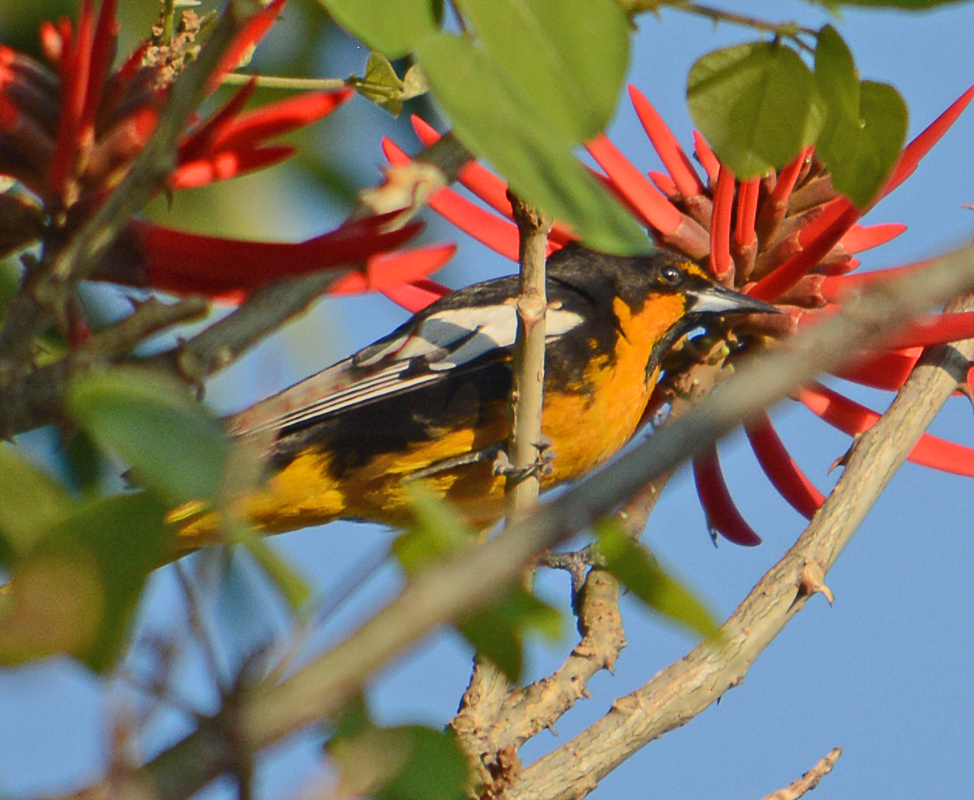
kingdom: Animalia
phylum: Chordata
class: Aves
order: Passeriformes
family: Icteridae
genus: Icterus
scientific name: Icterus abeillei
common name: Black-backed oriole
